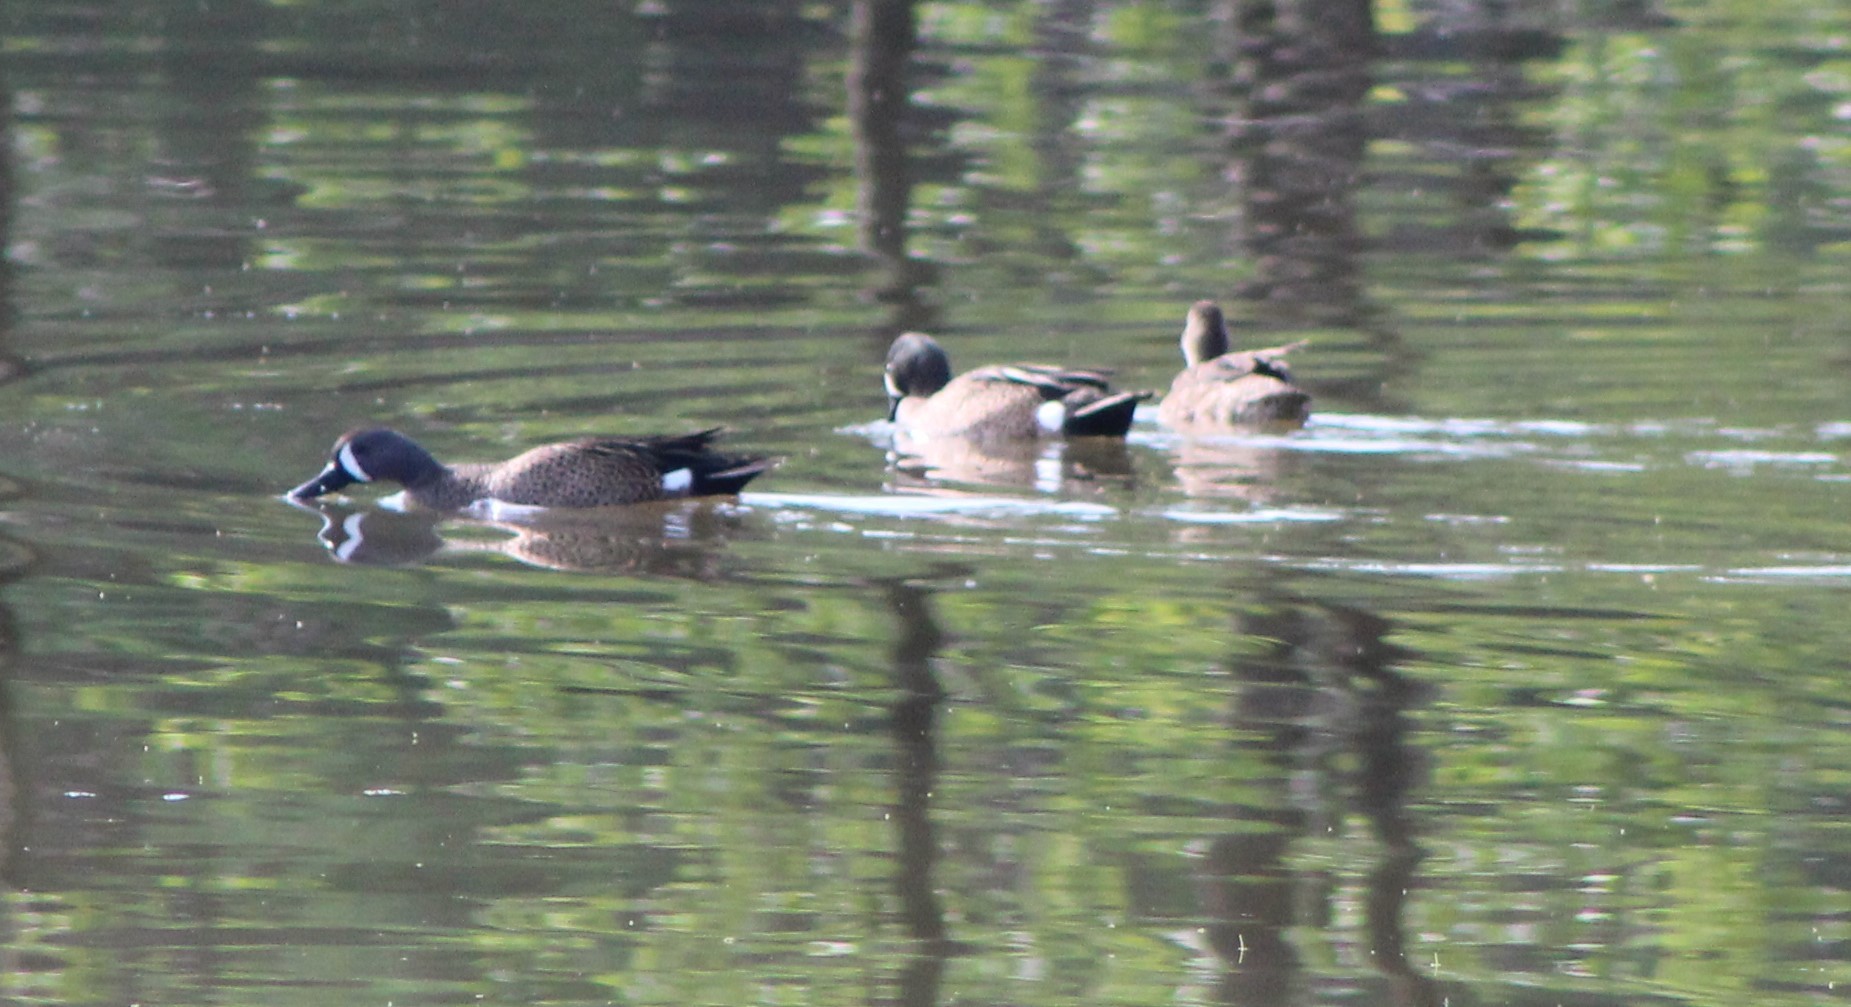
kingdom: Animalia
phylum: Chordata
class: Aves
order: Anseriformes
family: Anatidae
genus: Spatula
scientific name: Spatula discors
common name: Blue-winged teal
